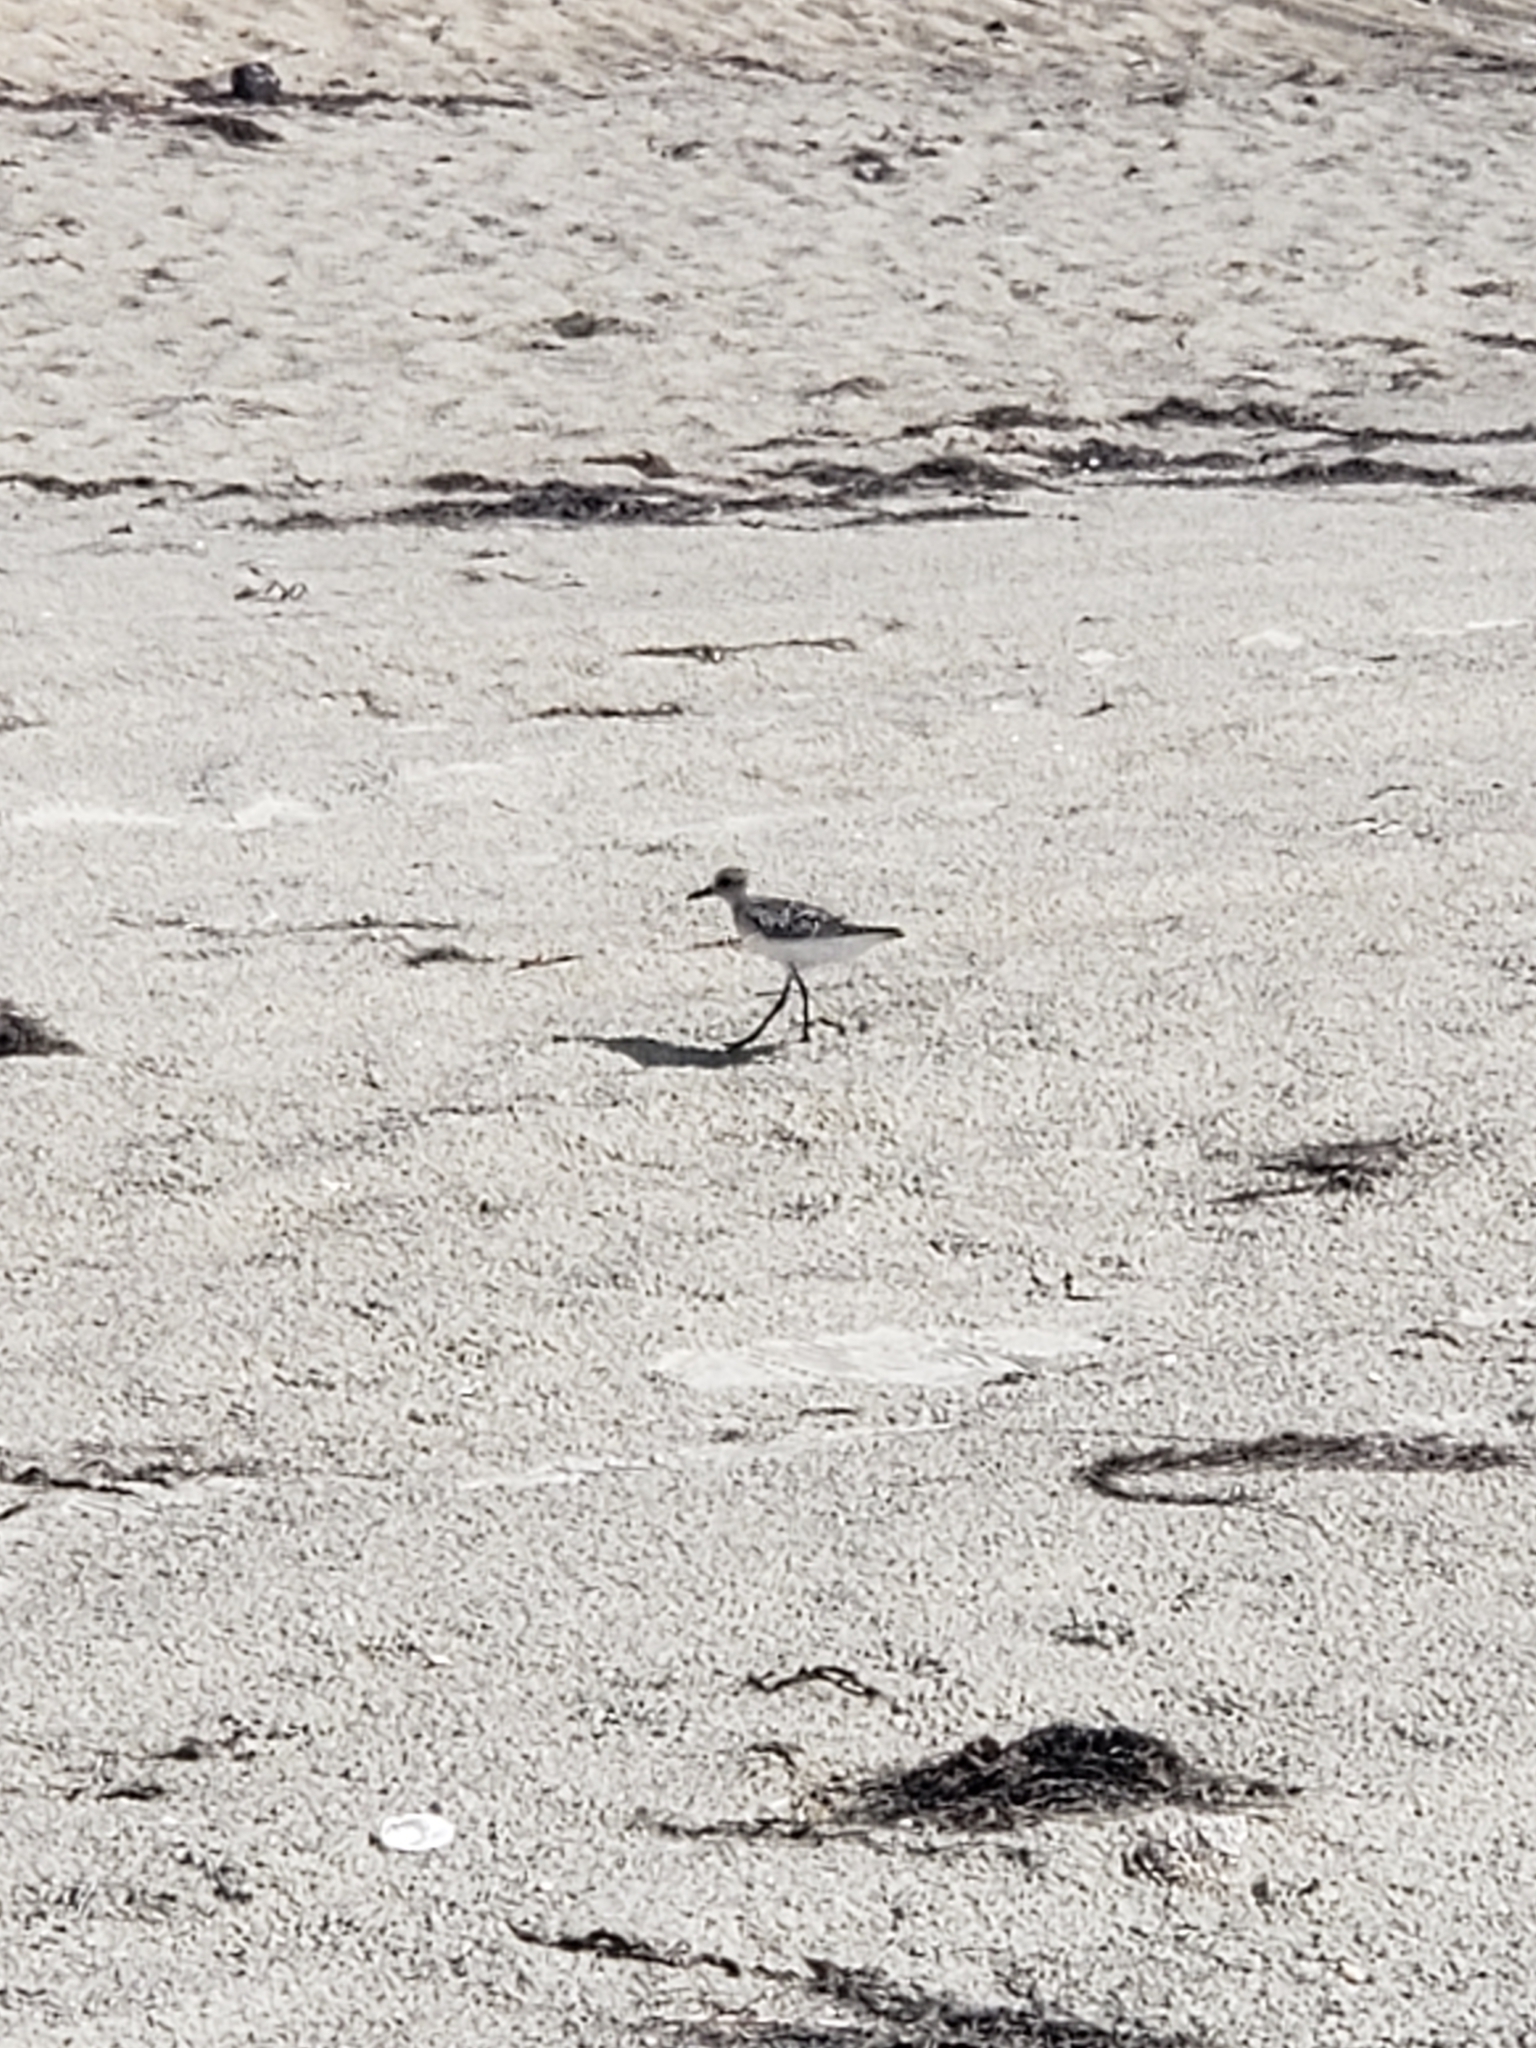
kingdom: Animalia
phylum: Chordata
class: Aves
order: Charadriiformes
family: Charadriidae
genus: Pluvialis
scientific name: Pluvialis squatarola
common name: Grey plover
